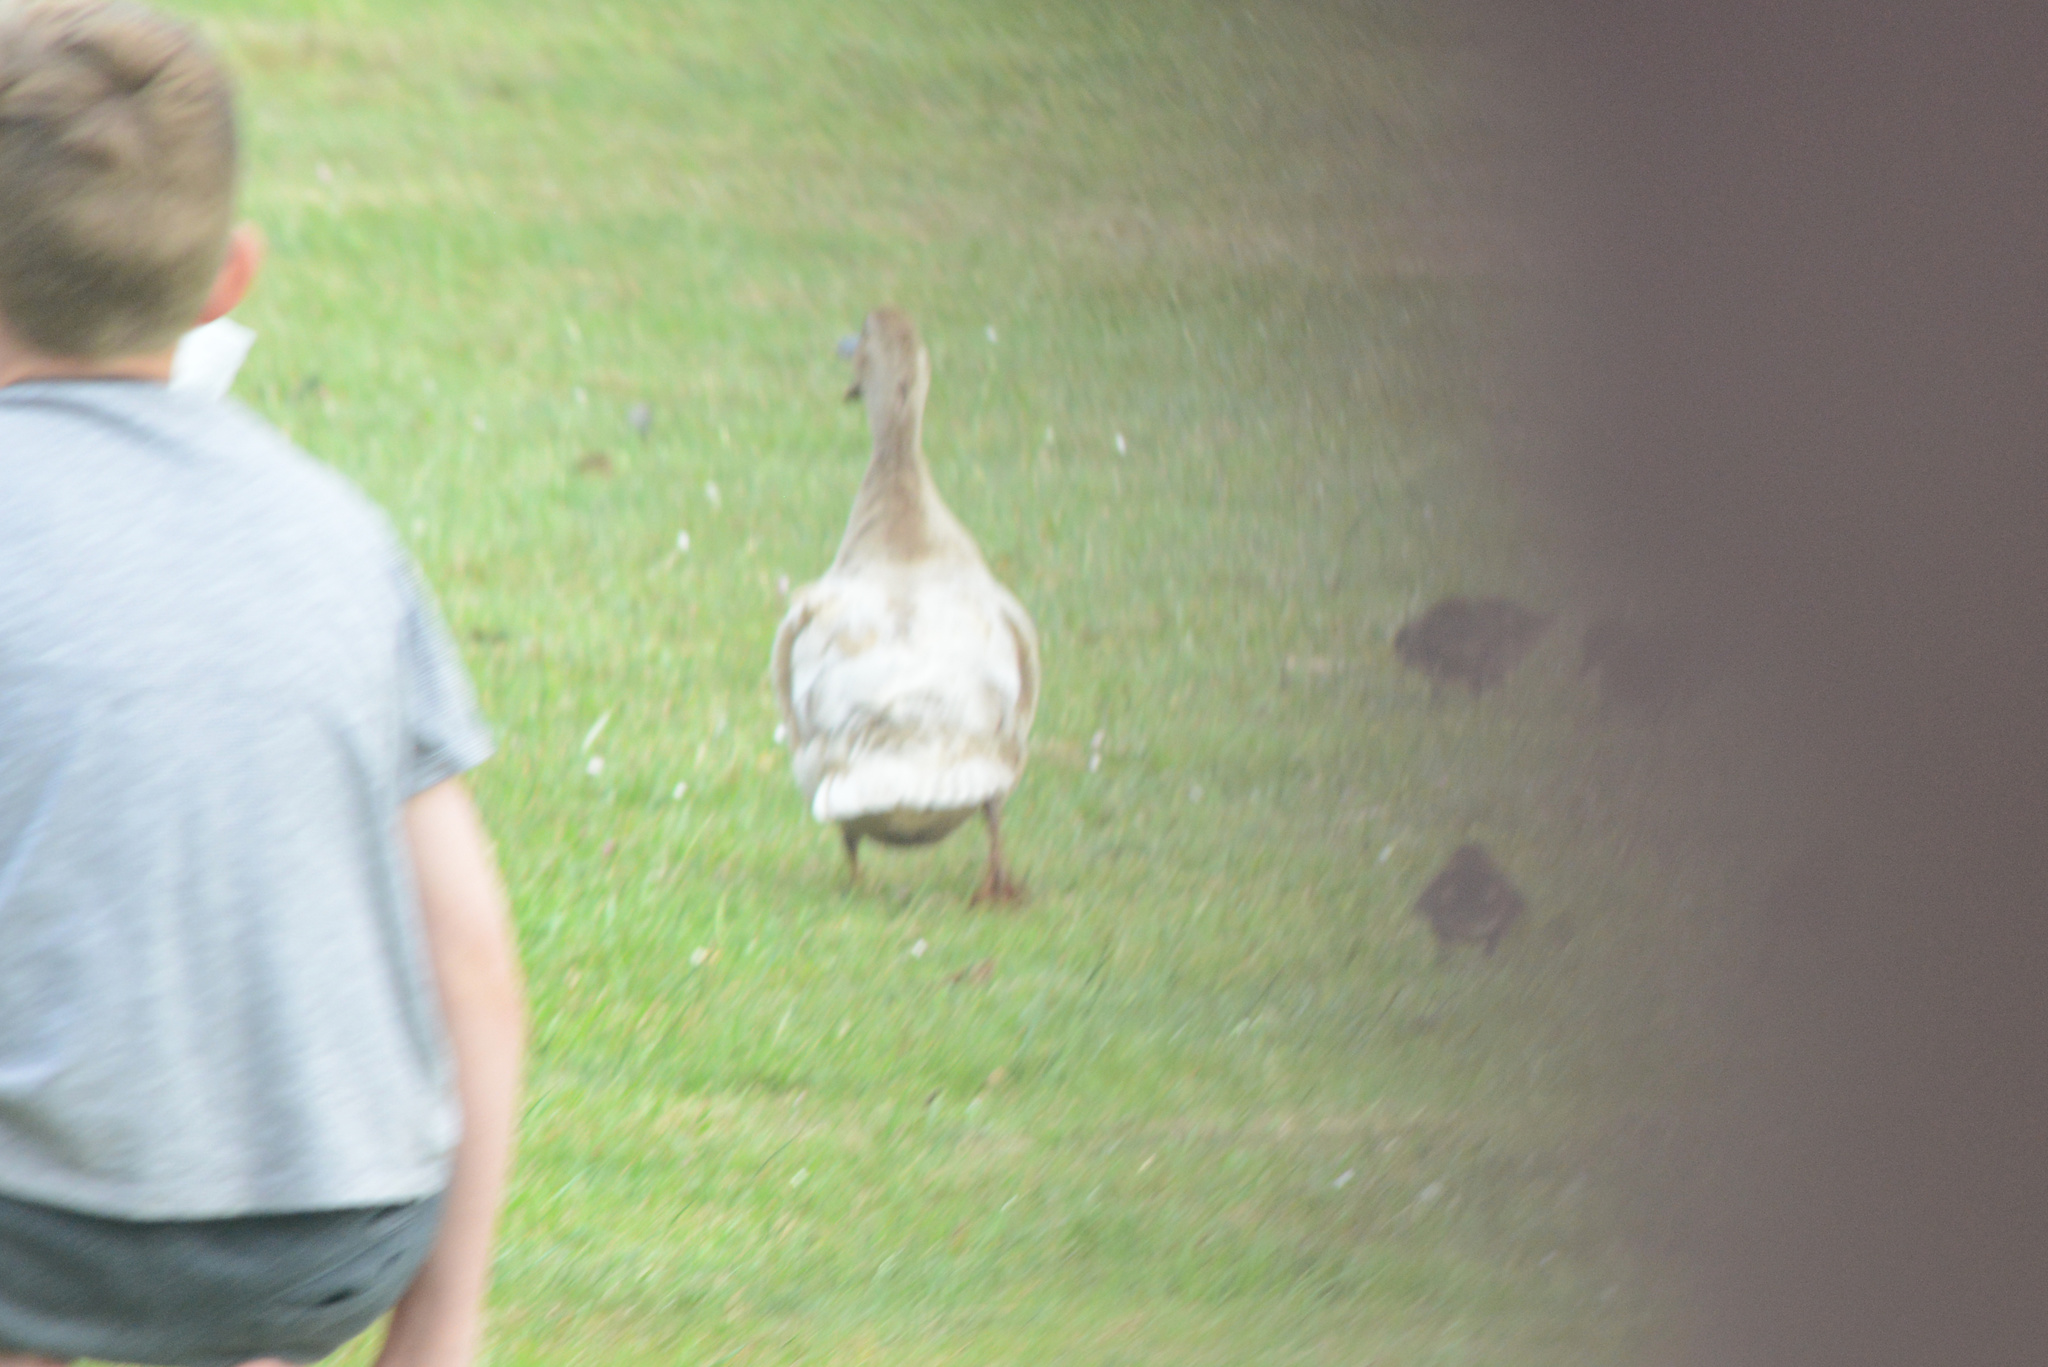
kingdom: Animalia
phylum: Chordata
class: Aves
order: Anseriformes
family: Anatidae
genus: Anas
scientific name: Anas platyrhynchos
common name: Mallard
